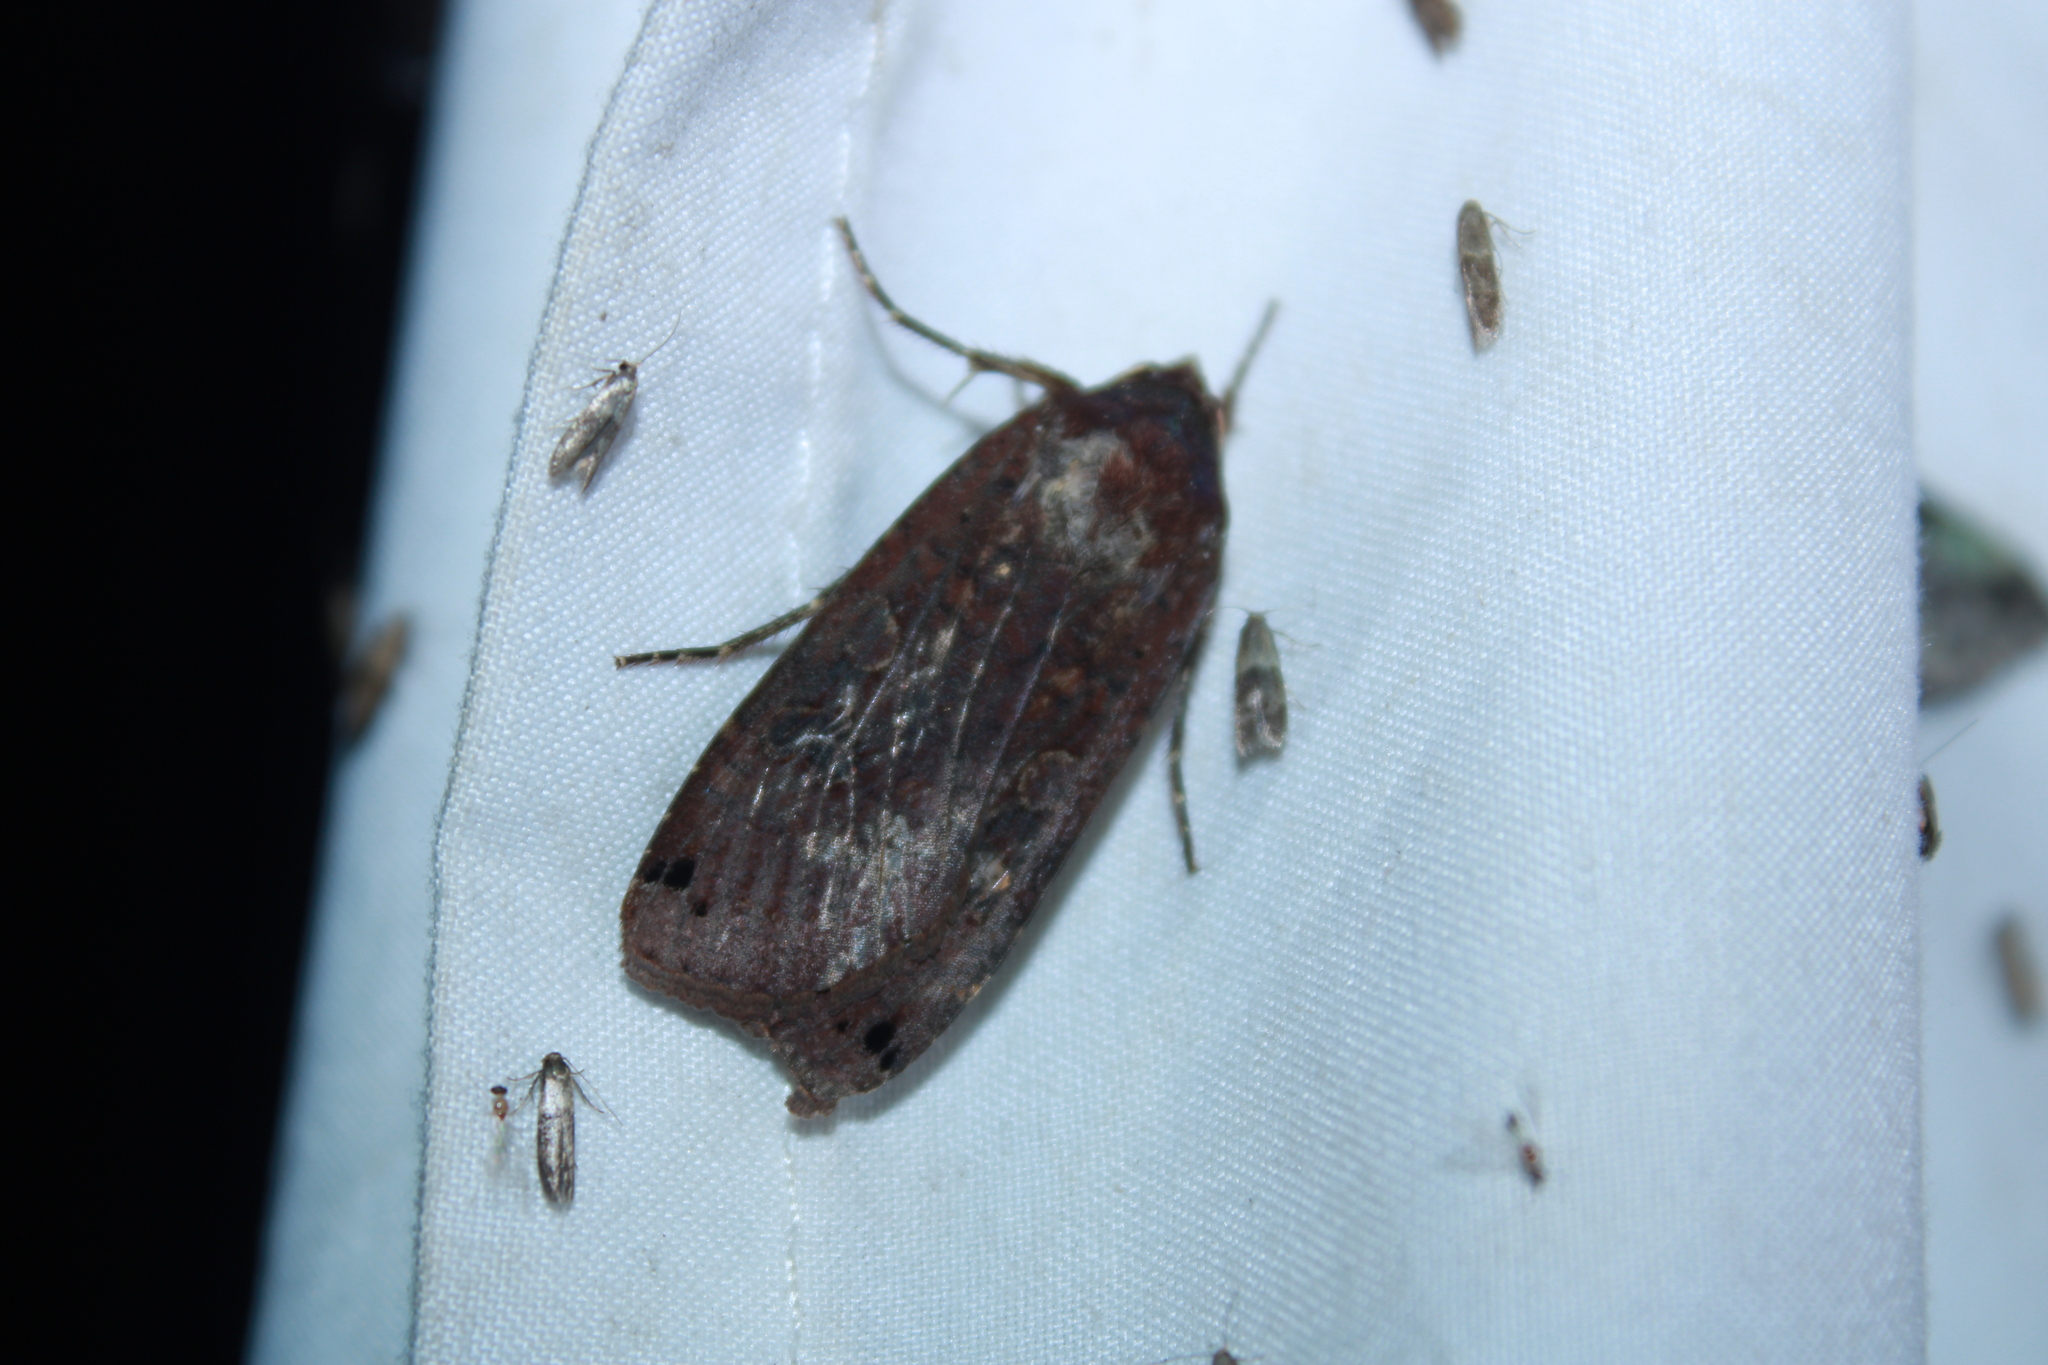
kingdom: Animalia
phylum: Arthropoda
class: Insecta
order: Lepidoptera
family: Noctuidae
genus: Noctua
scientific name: Noctua pronuba
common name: Large yellow underwing
